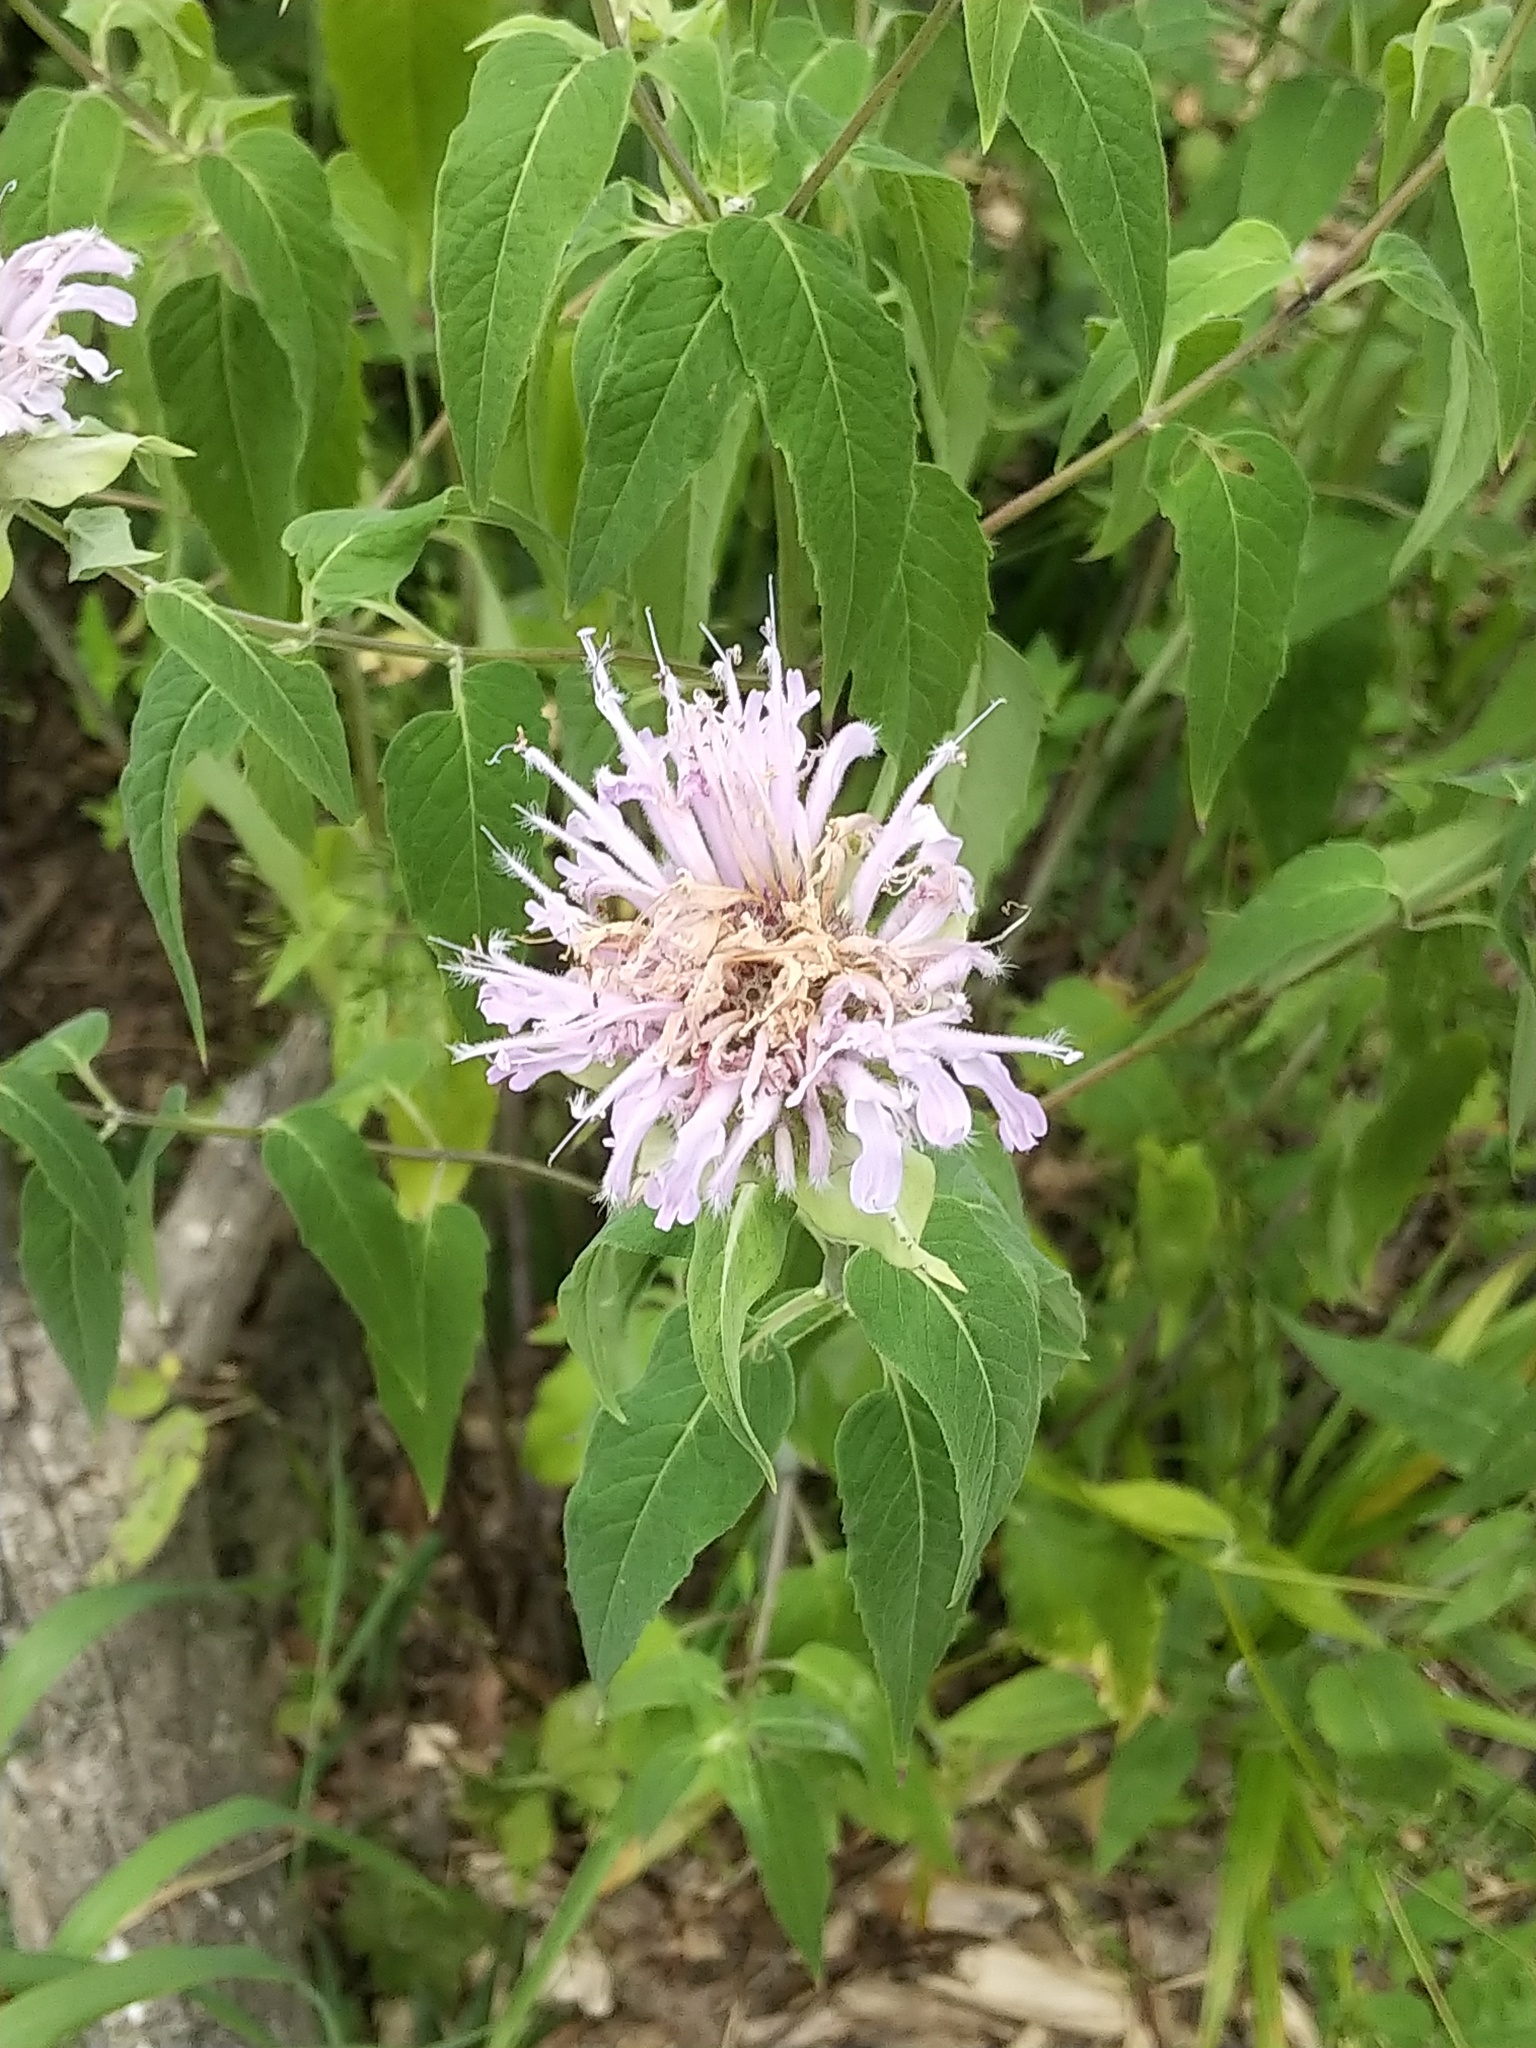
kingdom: Plantae
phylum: Tracheophyta
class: Magnoliopsida
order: Lamiales
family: Lamiaceae
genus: Monarda
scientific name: Monarda fistulosa
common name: Purple beebalm
